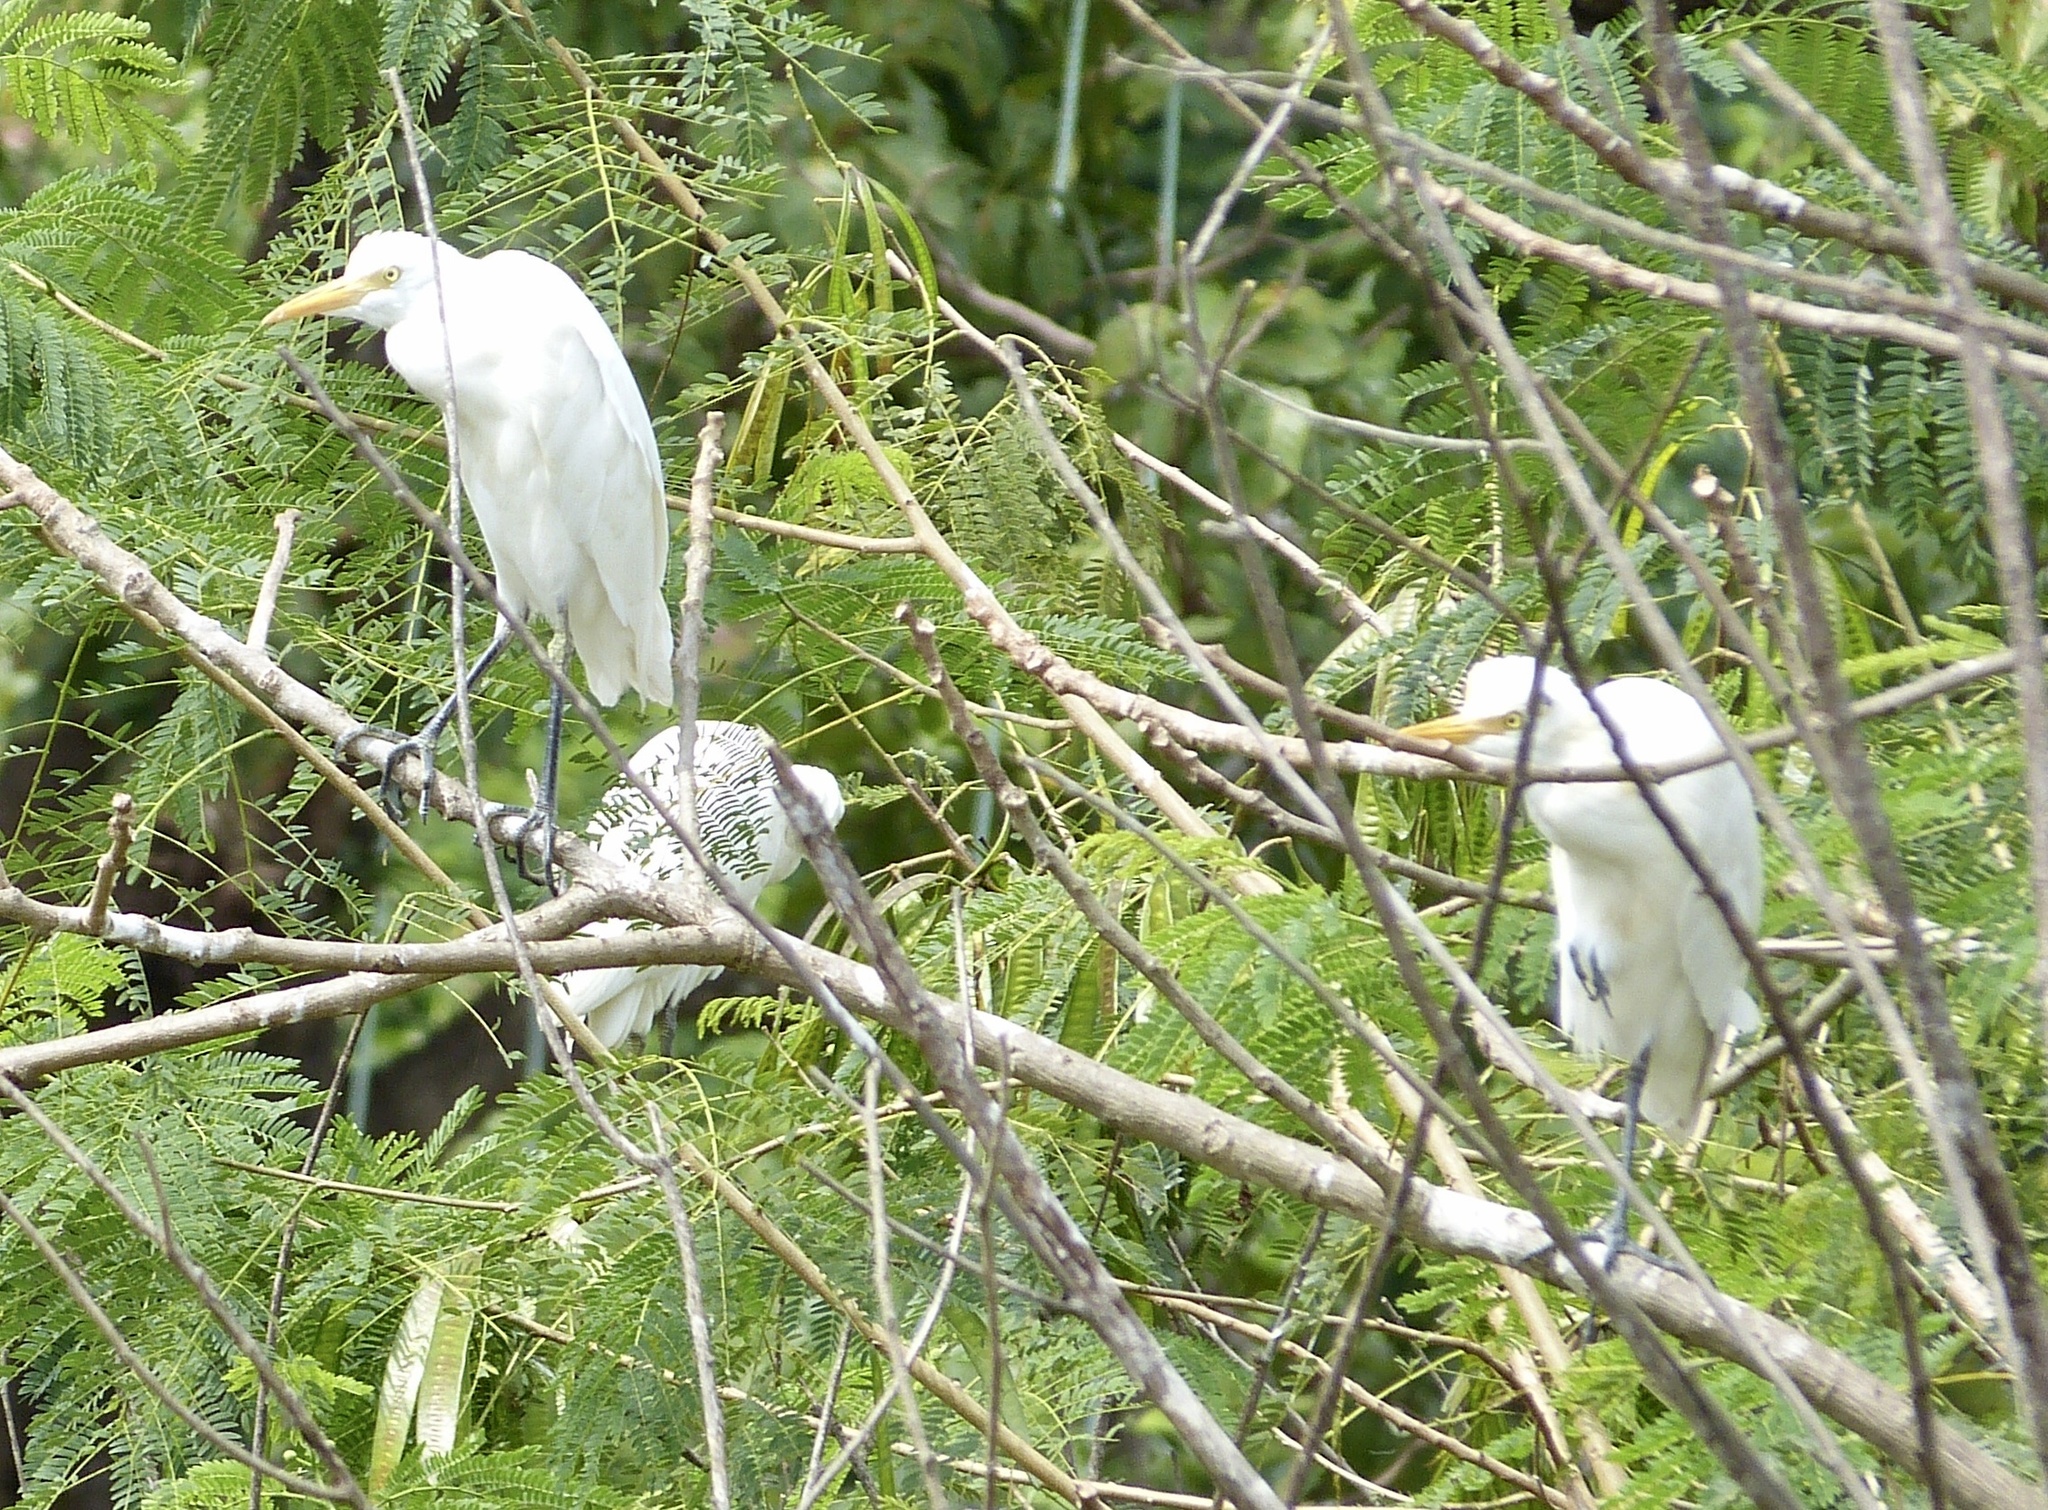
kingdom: Animalia
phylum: Chordata
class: Aves
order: Pelecaniformes
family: Ardeidae
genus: Bubulcus
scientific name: Bubulcus coromandus
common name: Eastern cattle egret
